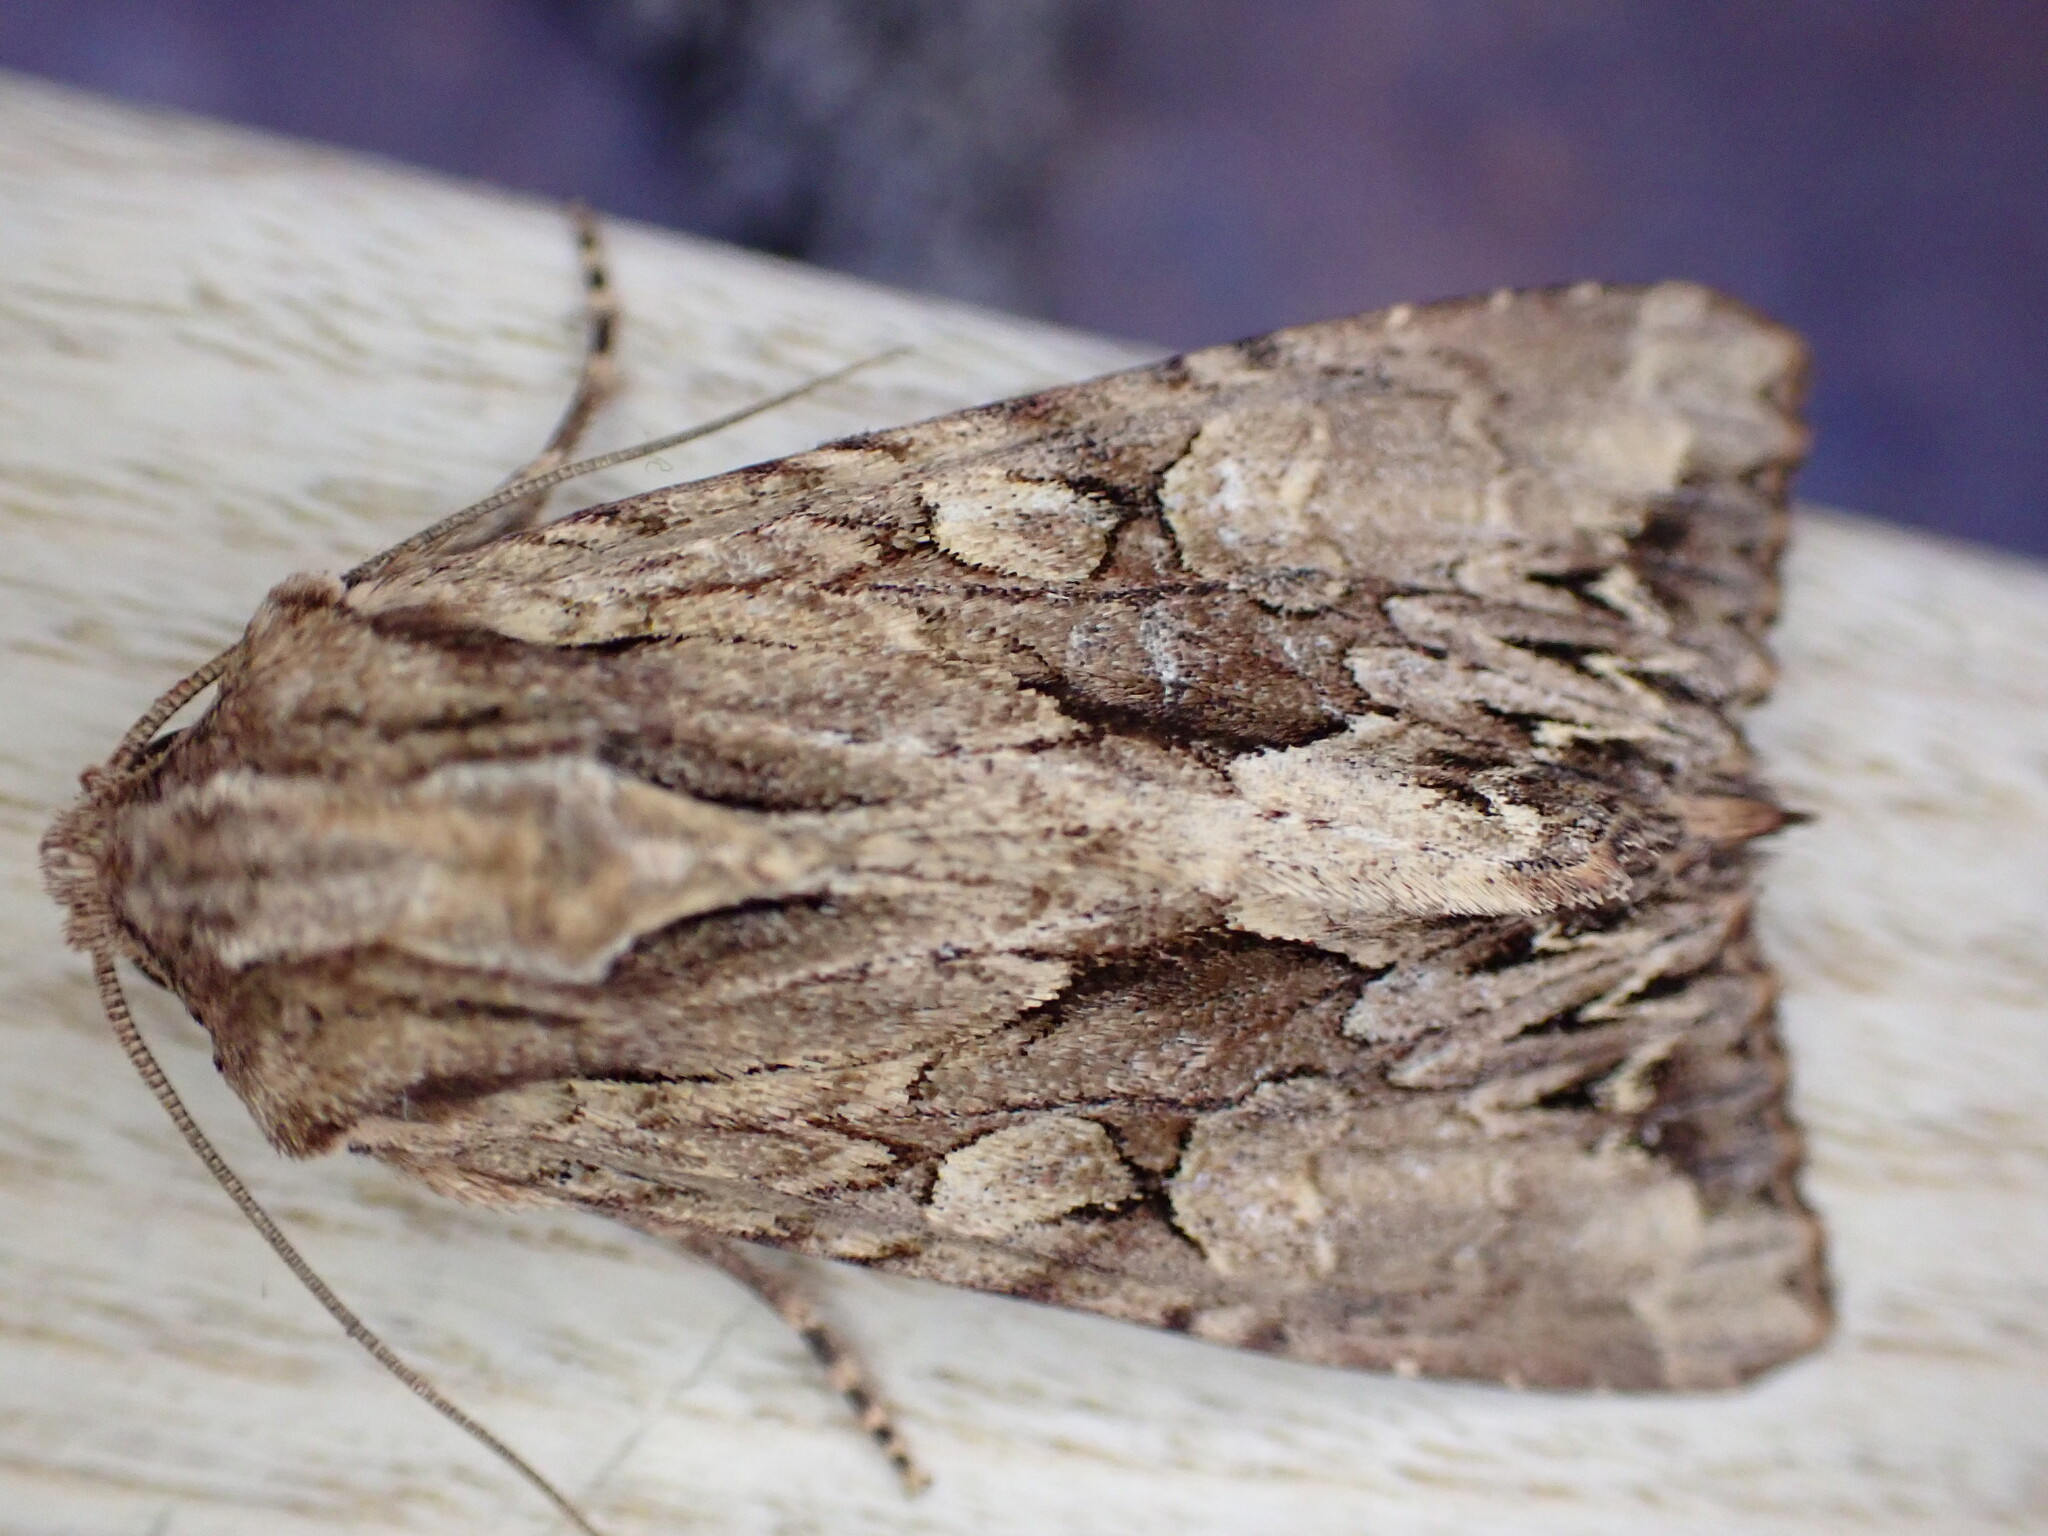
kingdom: Animalia
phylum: Arthropoda
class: Insecta
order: Lepidoptera
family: Noctuidae
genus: Apamea
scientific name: Apamea monoglypha
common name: Dark arches
